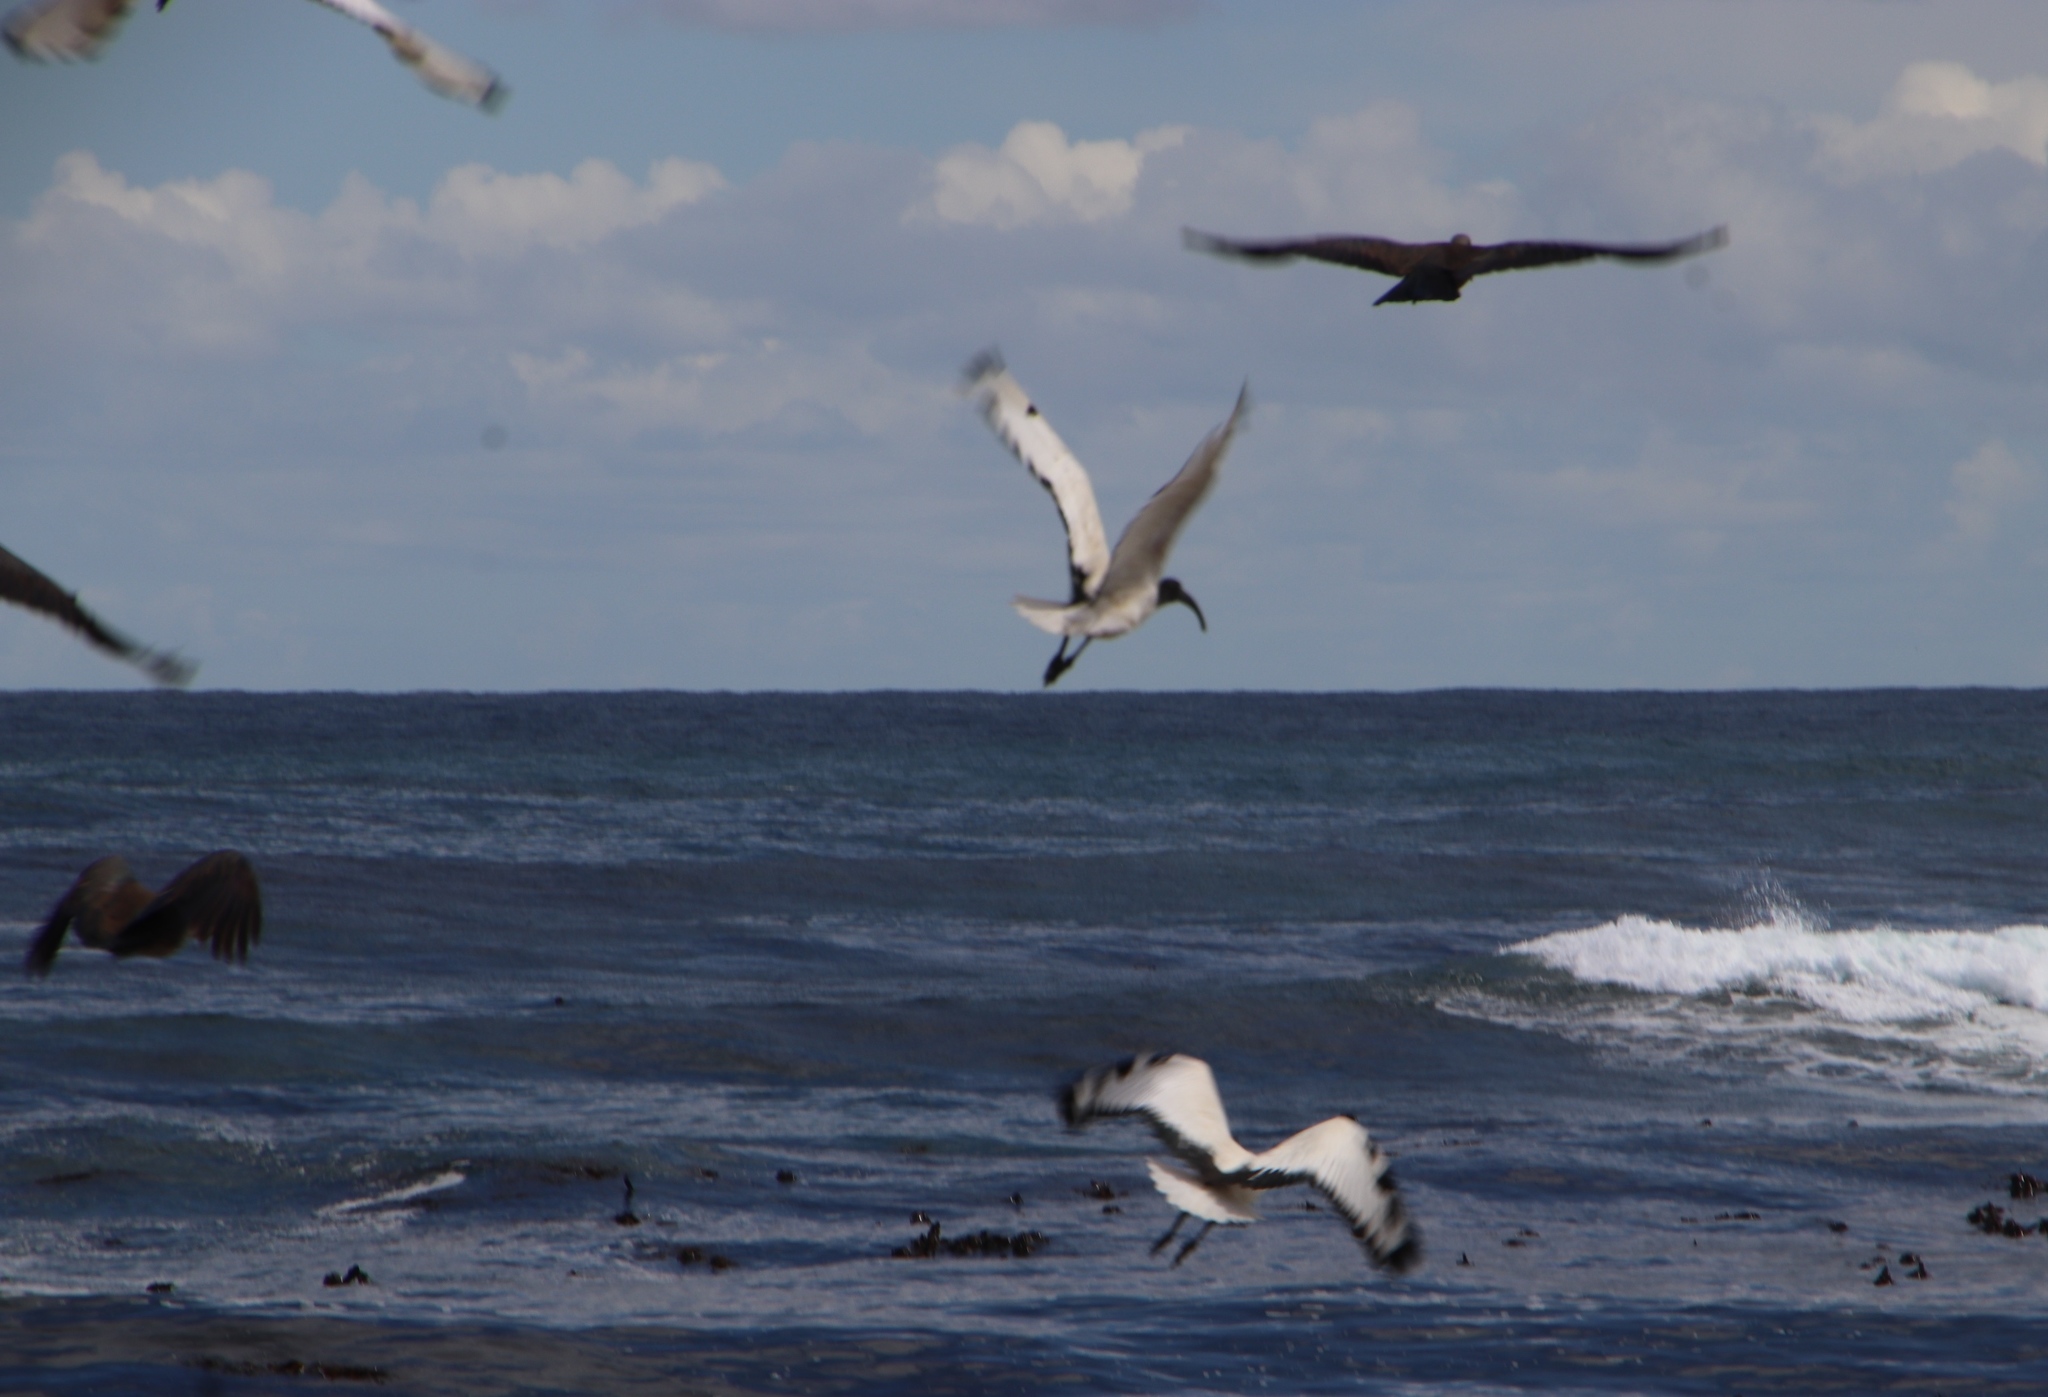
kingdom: Animalia
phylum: Chordata
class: Aves
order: Pelecaniformes
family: Threskiornithidae
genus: Threskiornis
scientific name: Threskiornis aethiopicus
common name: Sacred ibis
